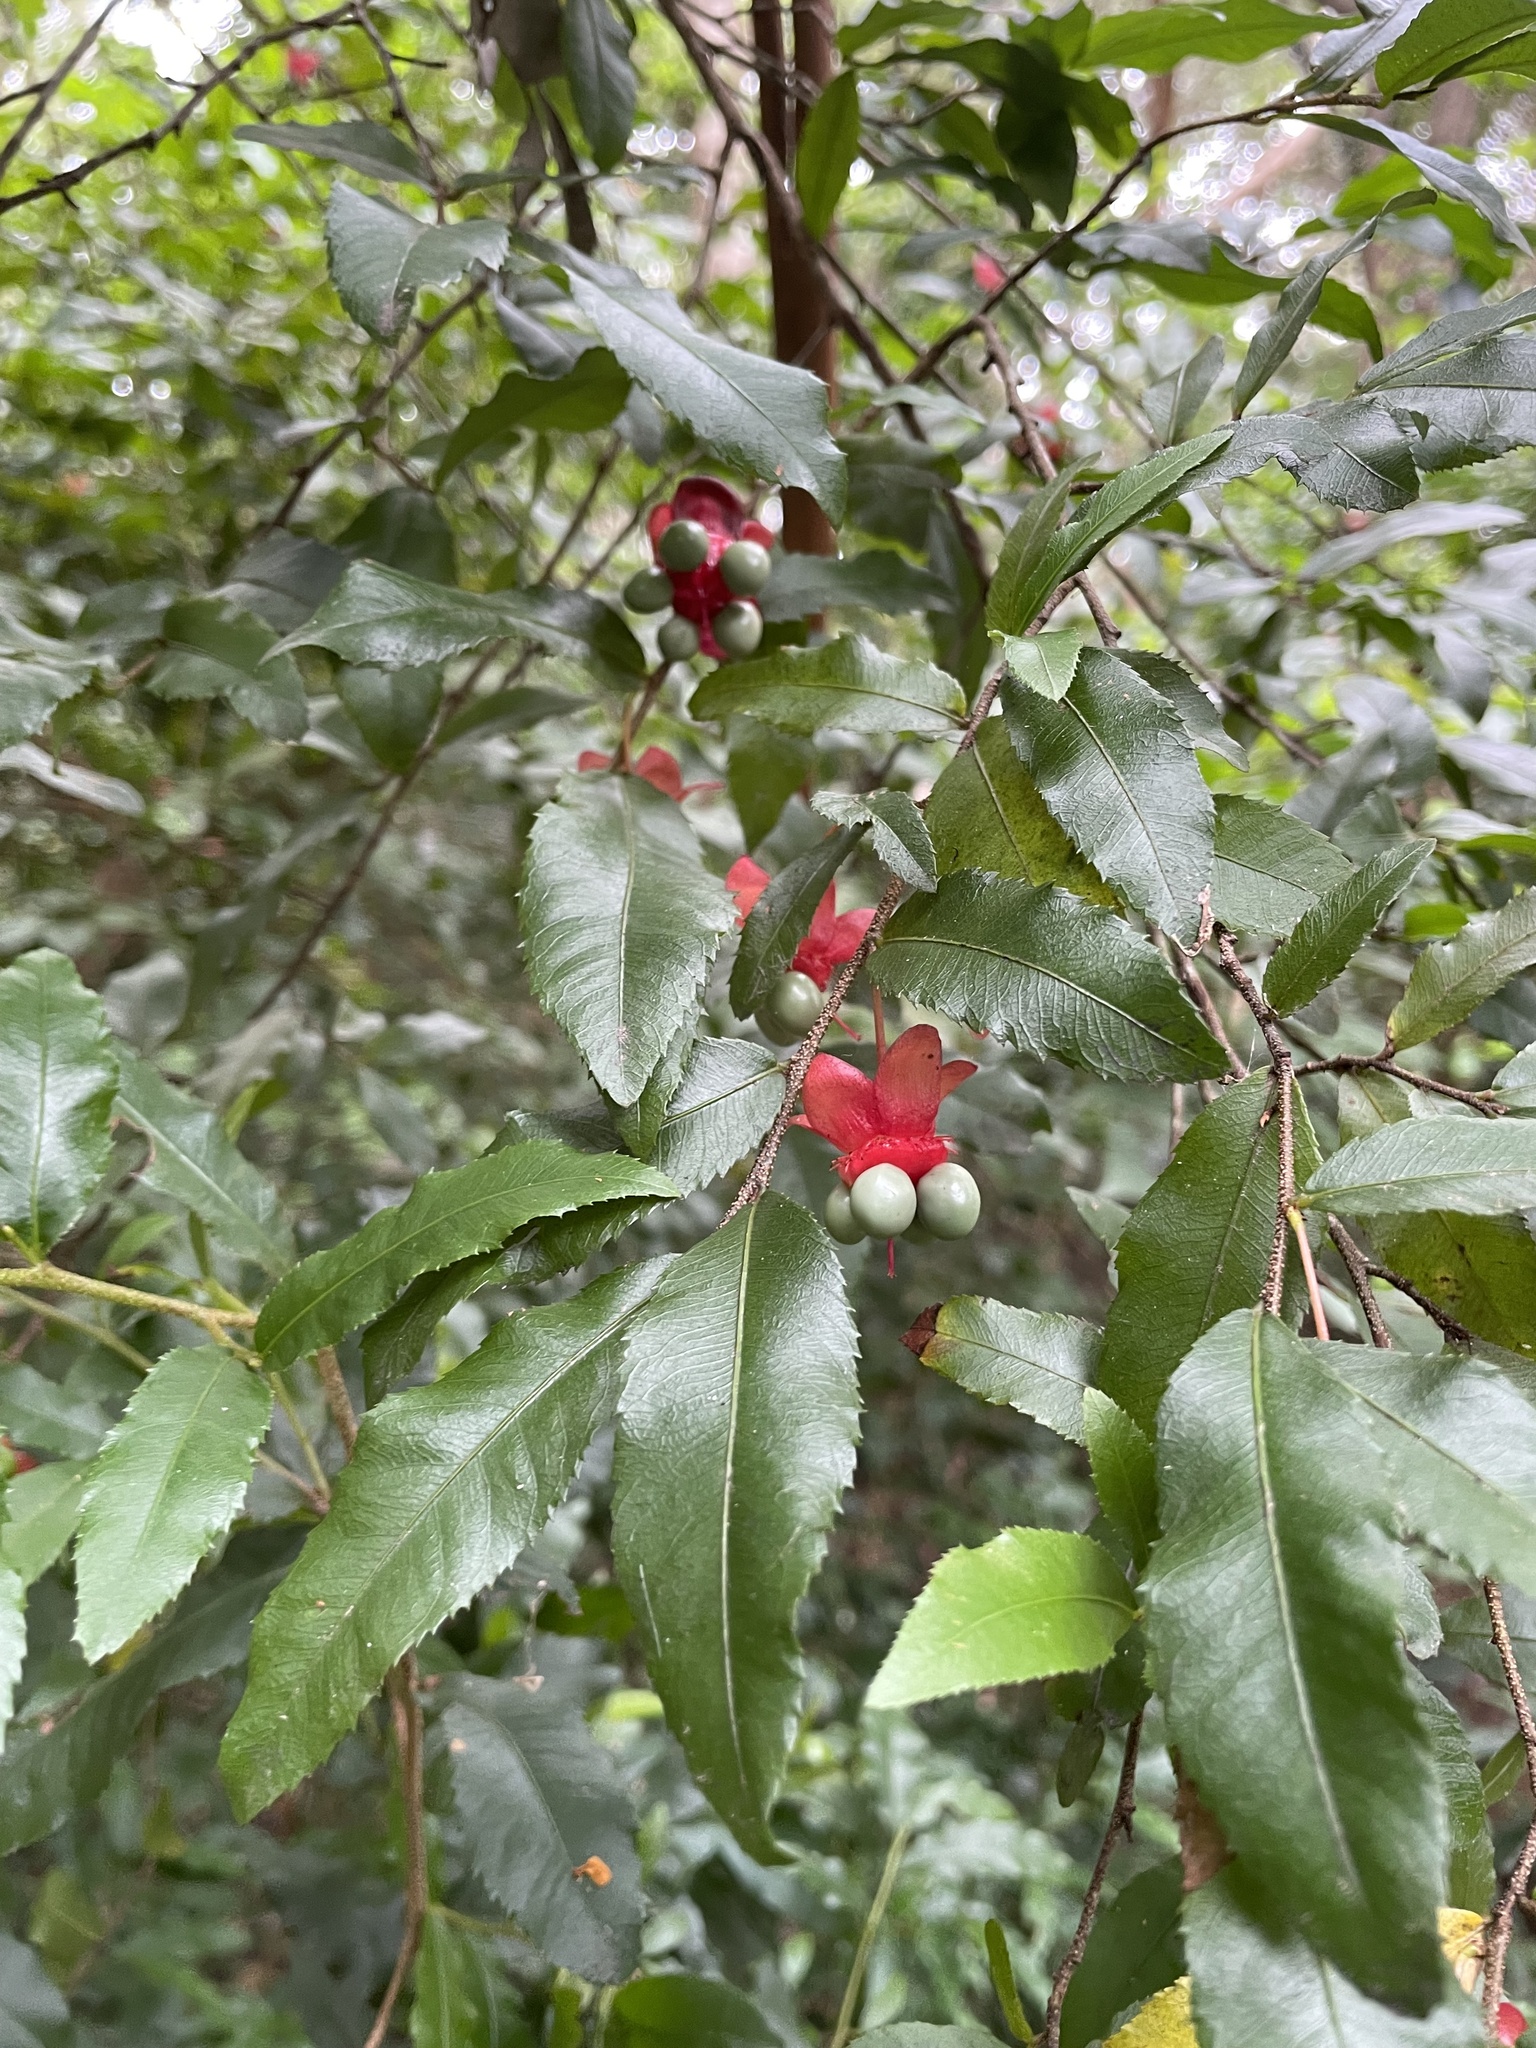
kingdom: Plantae
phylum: Tracheophyta
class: Magnoliopsida
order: Malpighiales
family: Ochnaceae
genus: Ochna
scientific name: Ochna serrulata
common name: Mickey mouse plant
